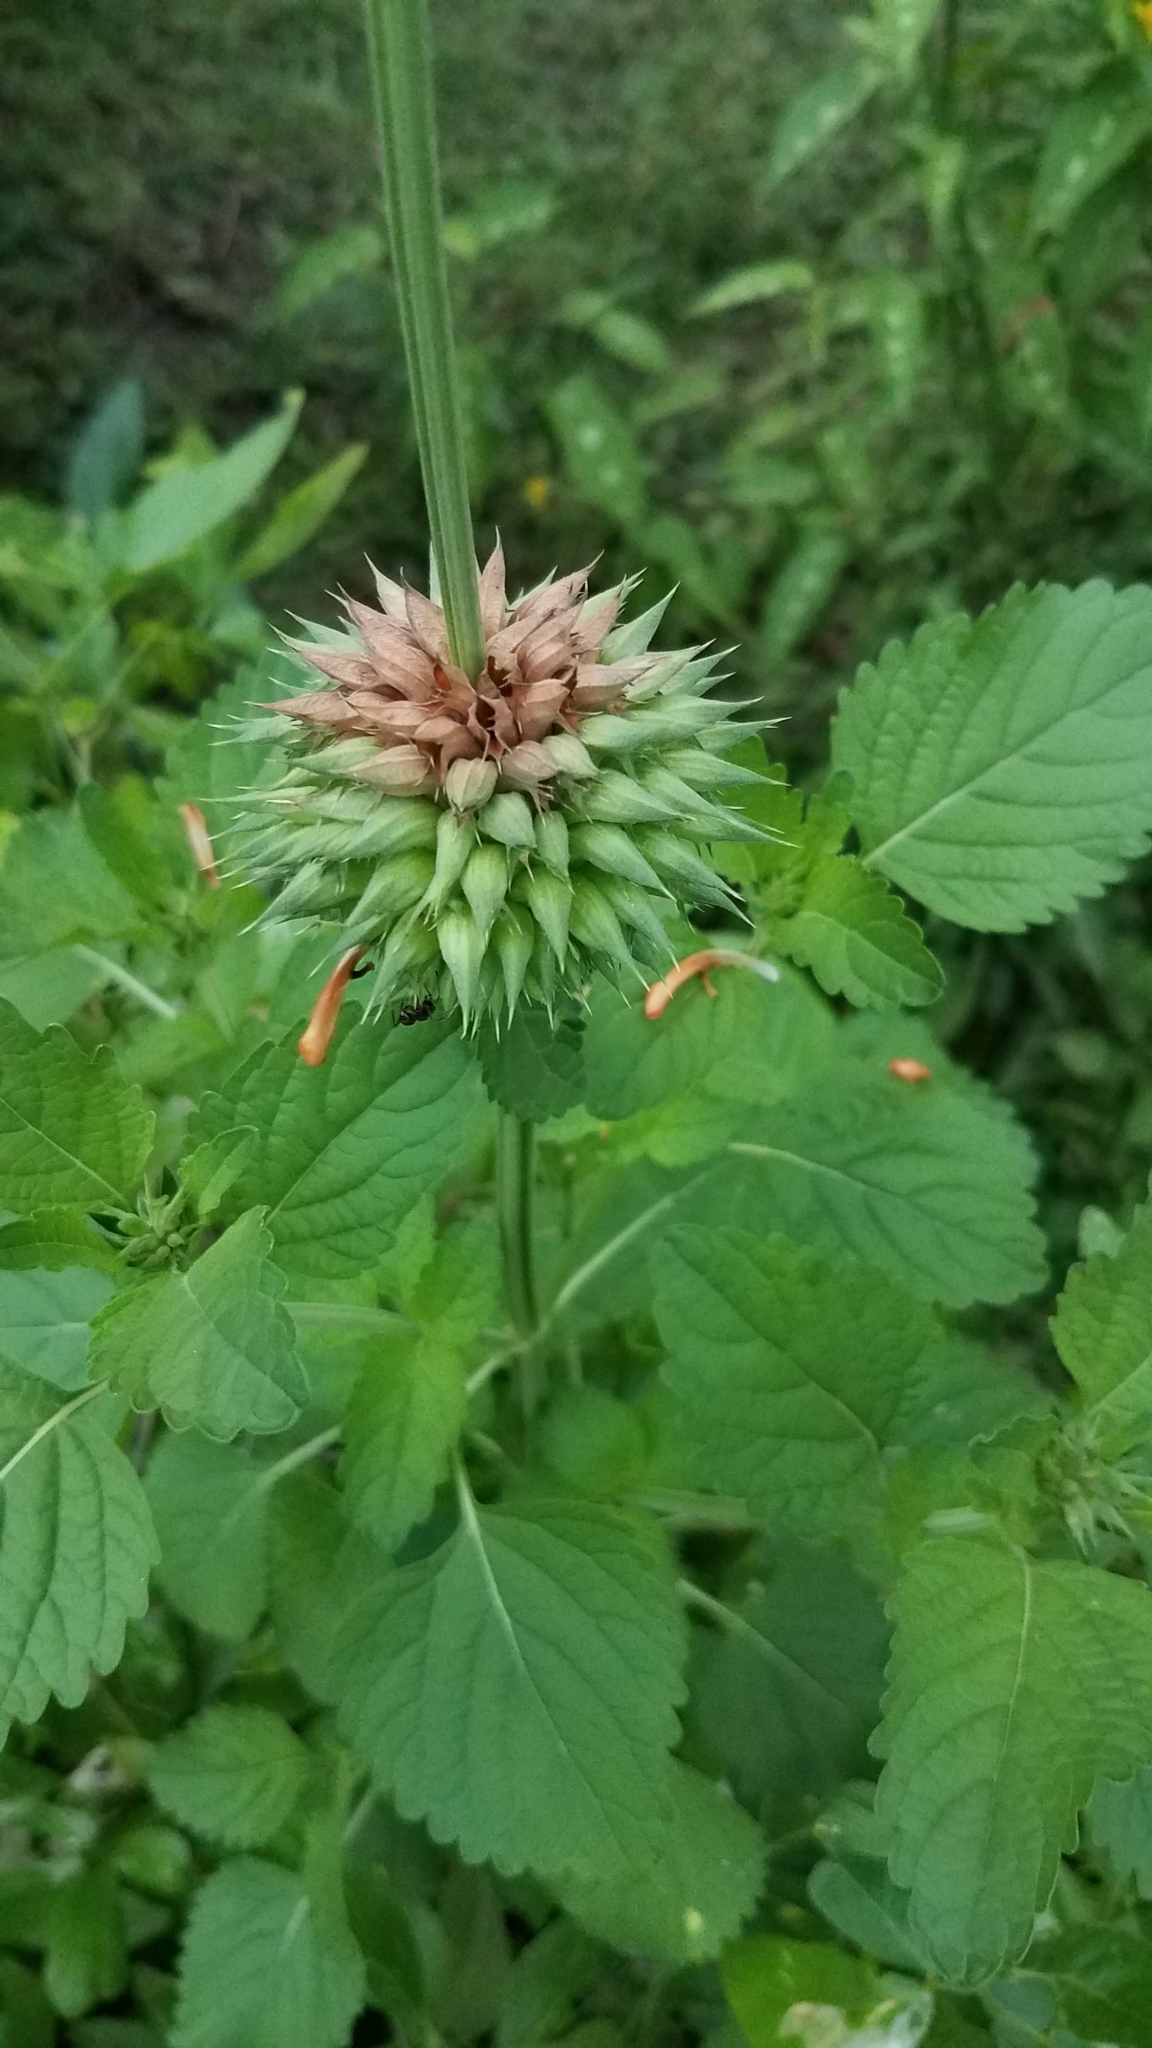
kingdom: Plantae
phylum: Tracheophyta
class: Magnoliopsida
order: Lamiales
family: Lamiaceae
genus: Leonotis
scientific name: Leonotis nepetifolia
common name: Christmas candlestick
